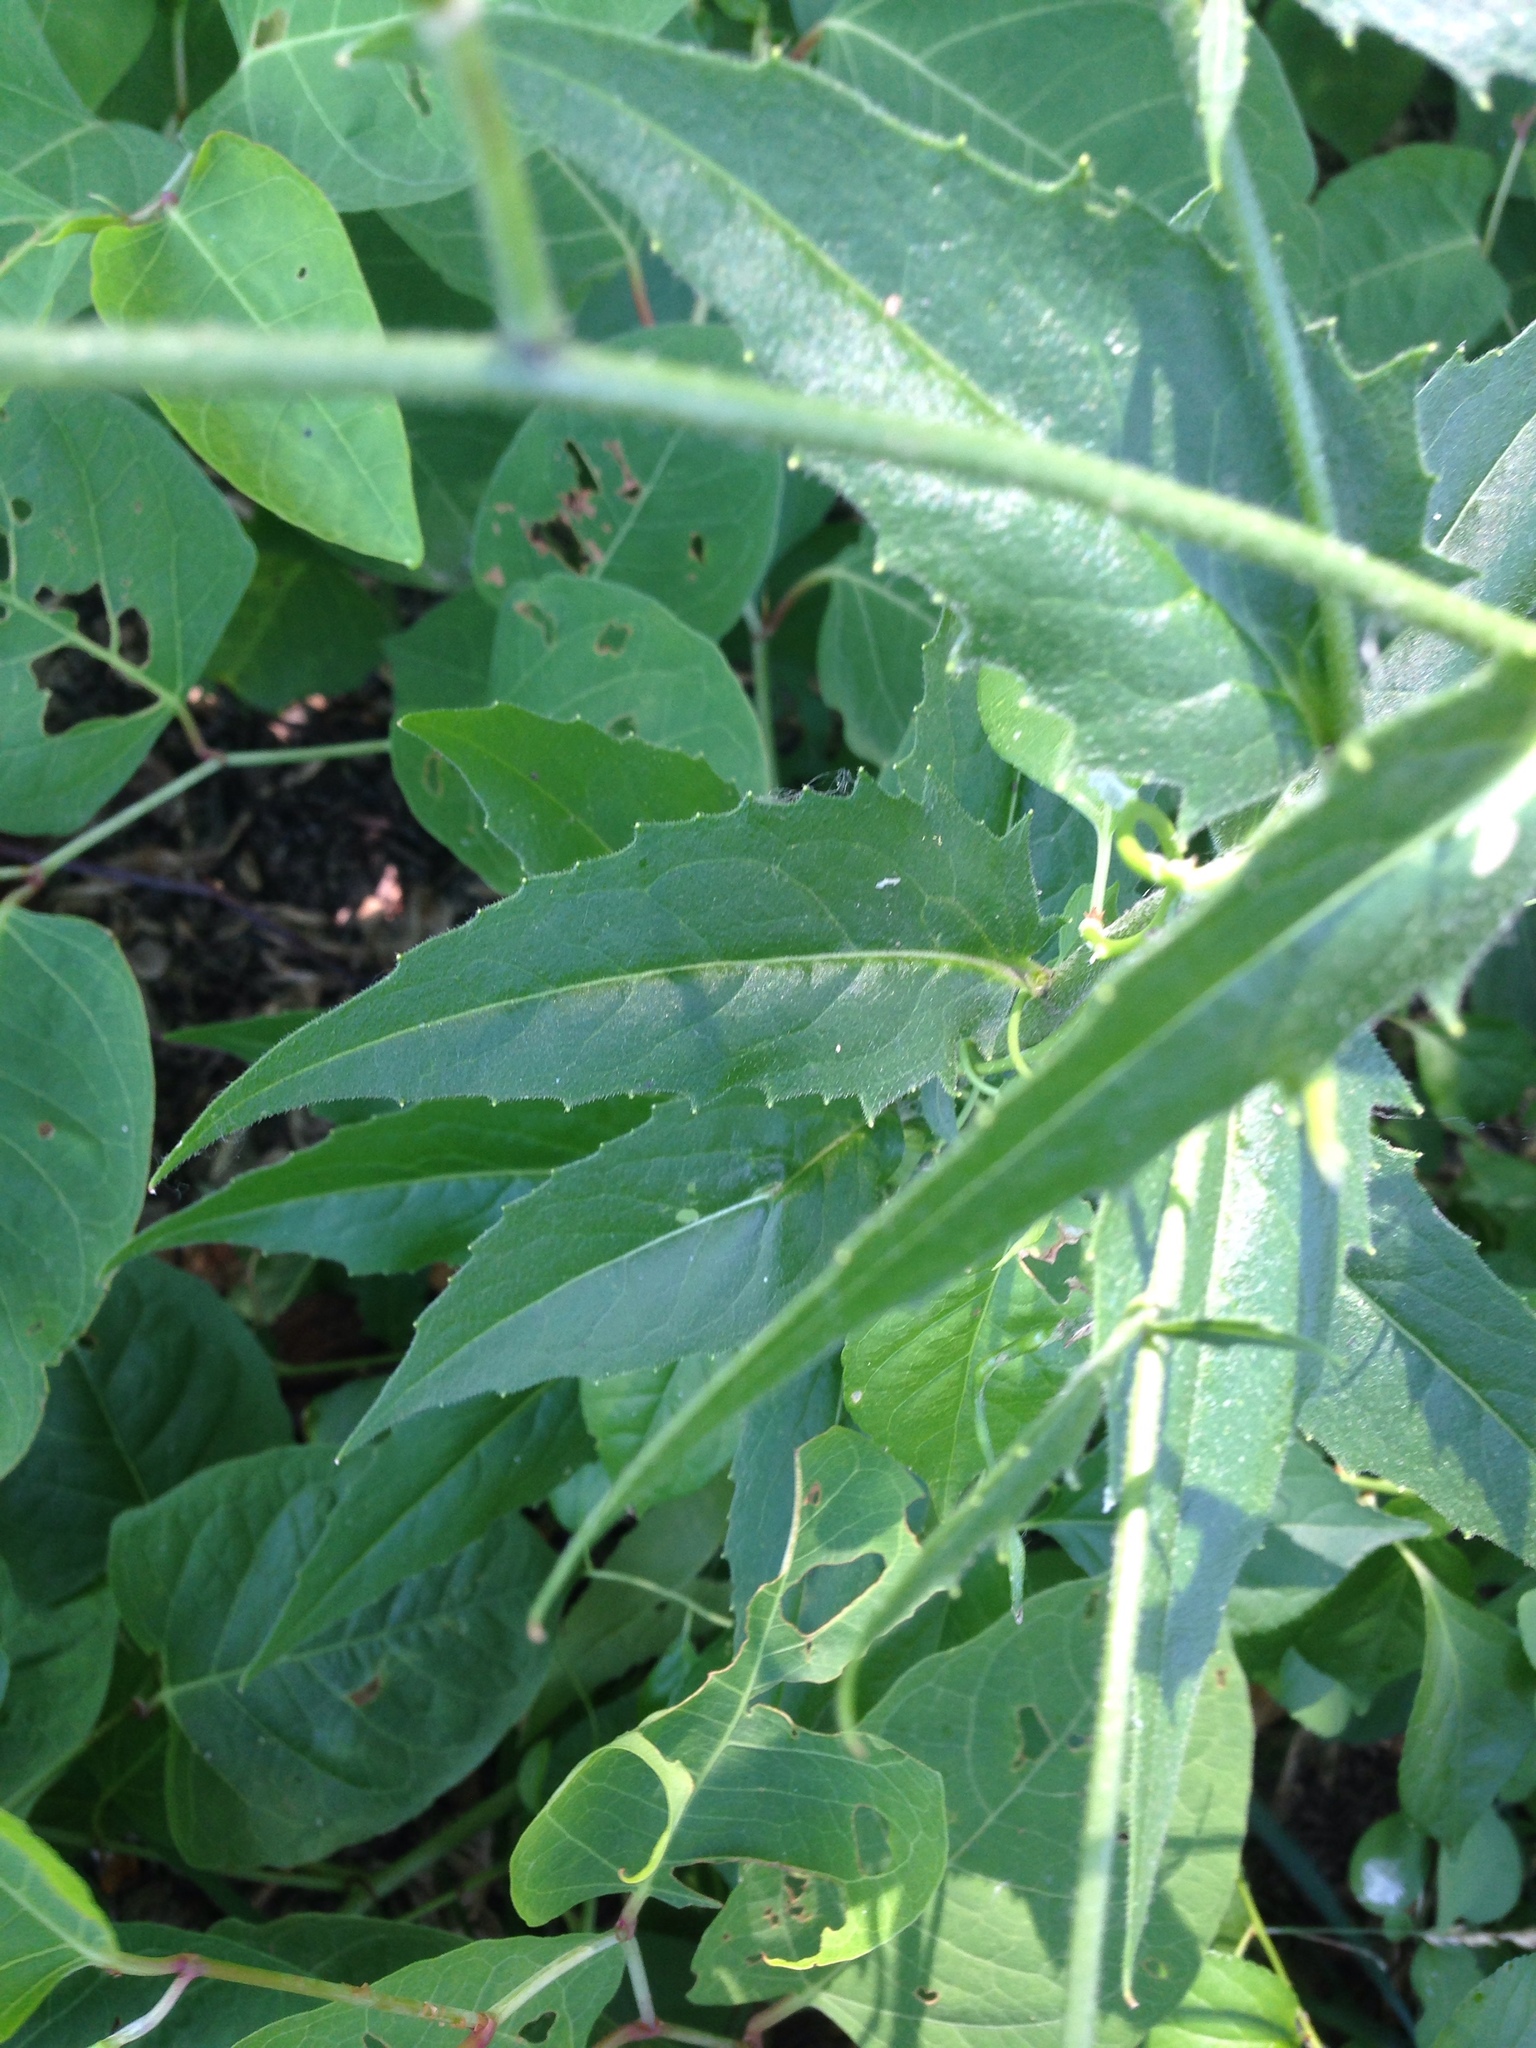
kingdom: Plantae
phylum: Tracheophyta
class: Magnoliopsida
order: Brassicales
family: Brassicaceae
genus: Hesperis
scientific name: Hesperis matronalis
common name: Dame's-violet
